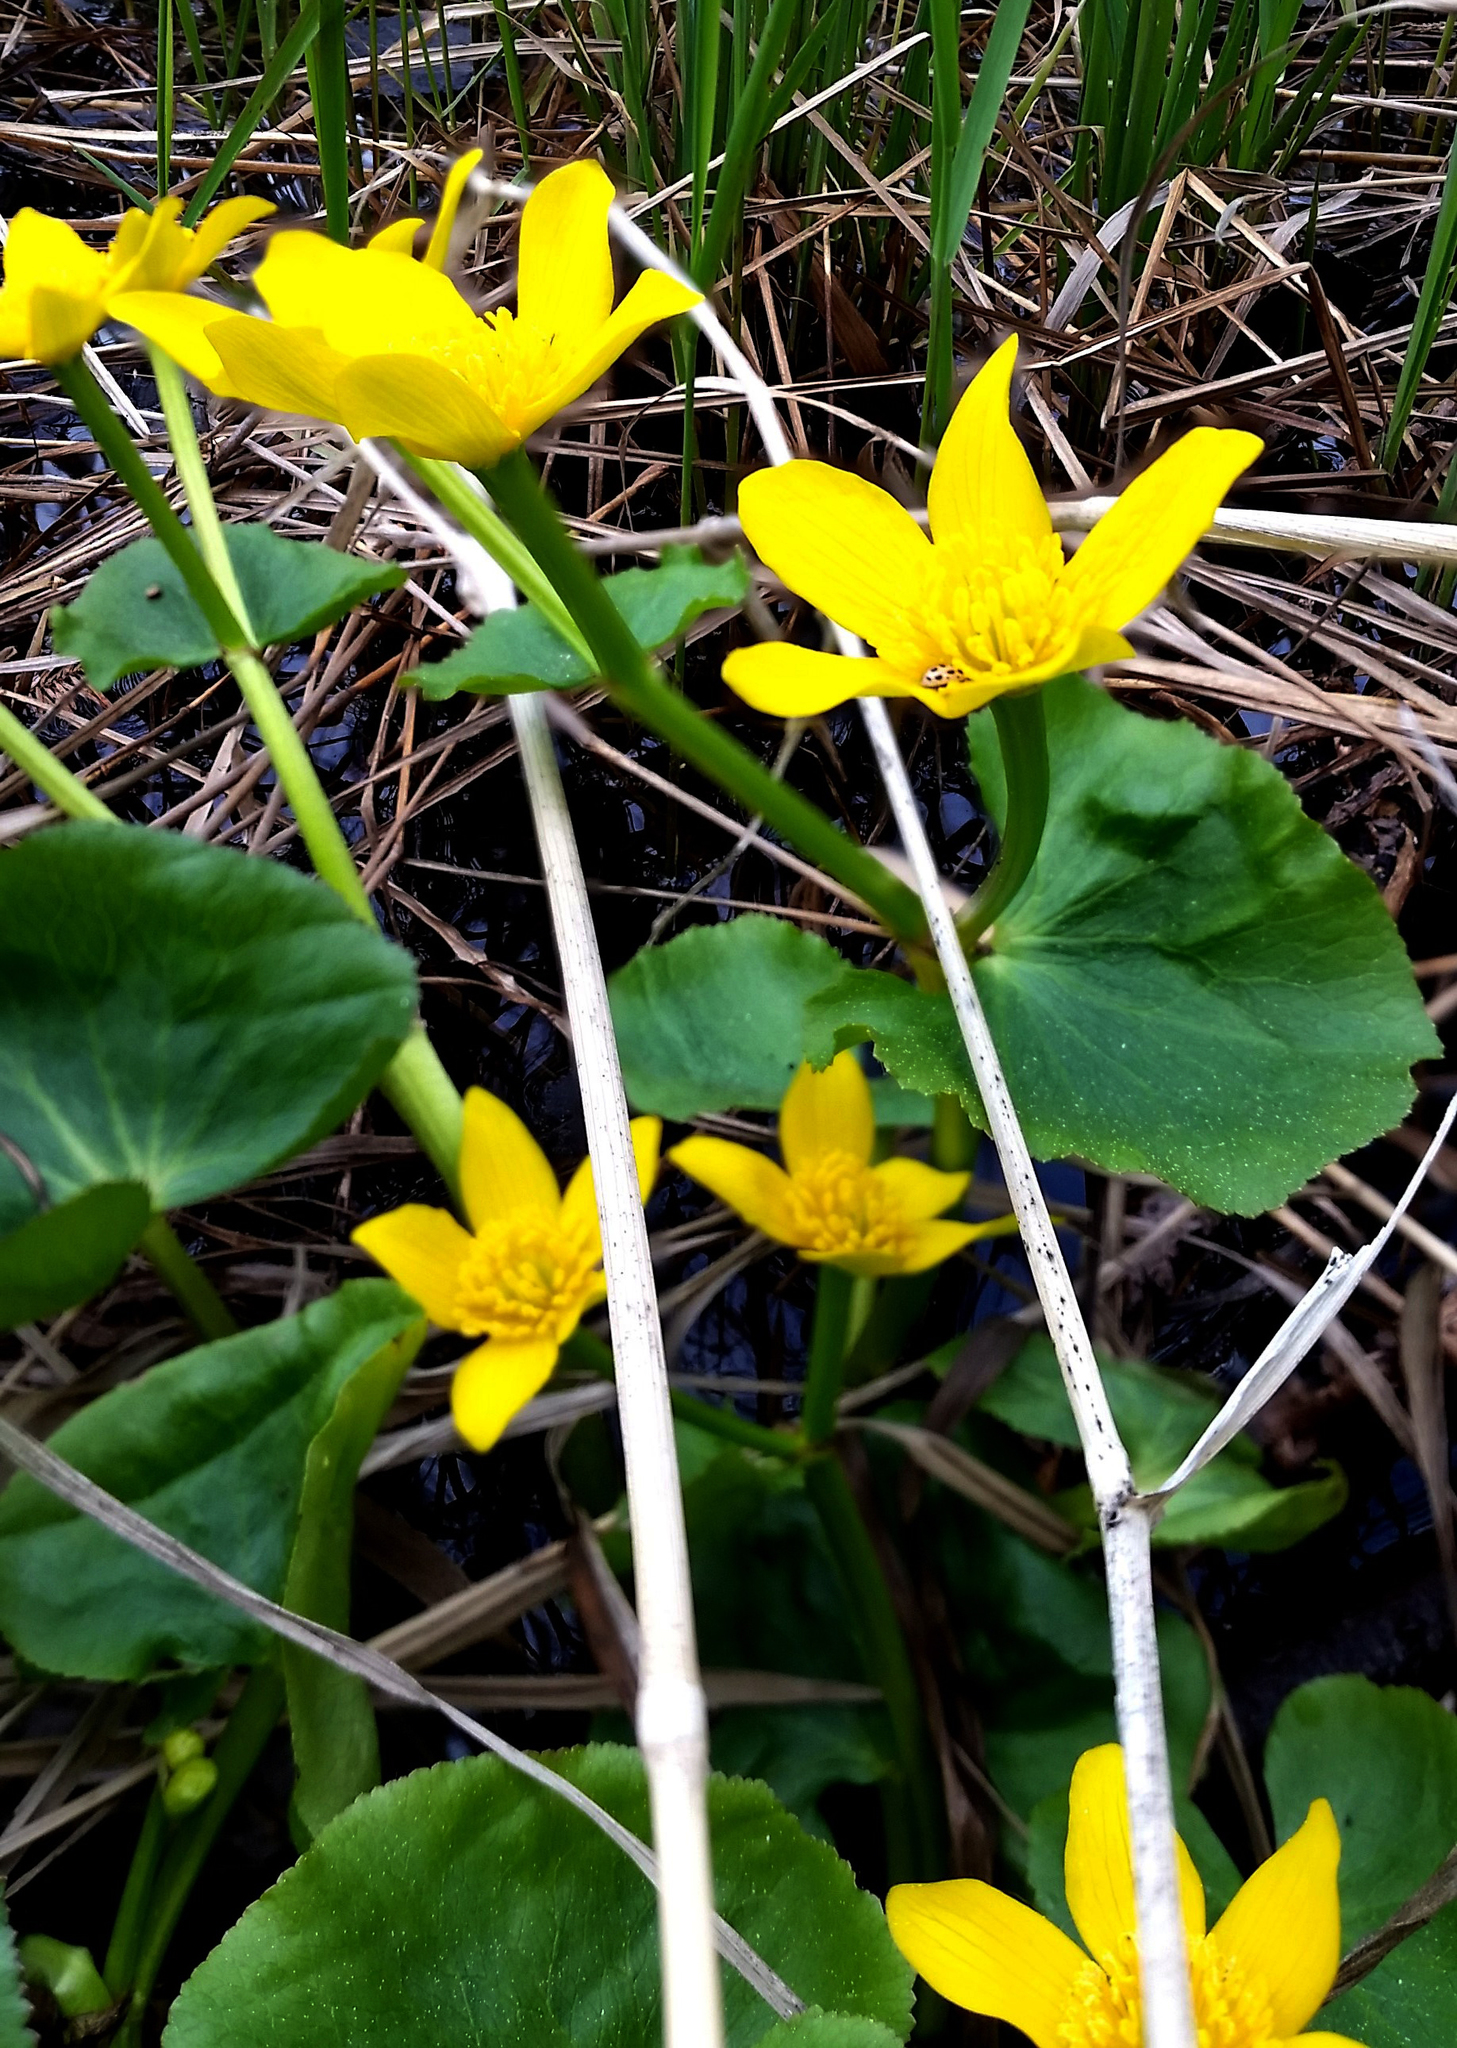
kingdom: Plantae
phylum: Tracheophyta
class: Magnoliopsida
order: Ranunculales
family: Ranunculaceae
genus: Caltha
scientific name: Caltha palustris
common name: Marsh marigold
